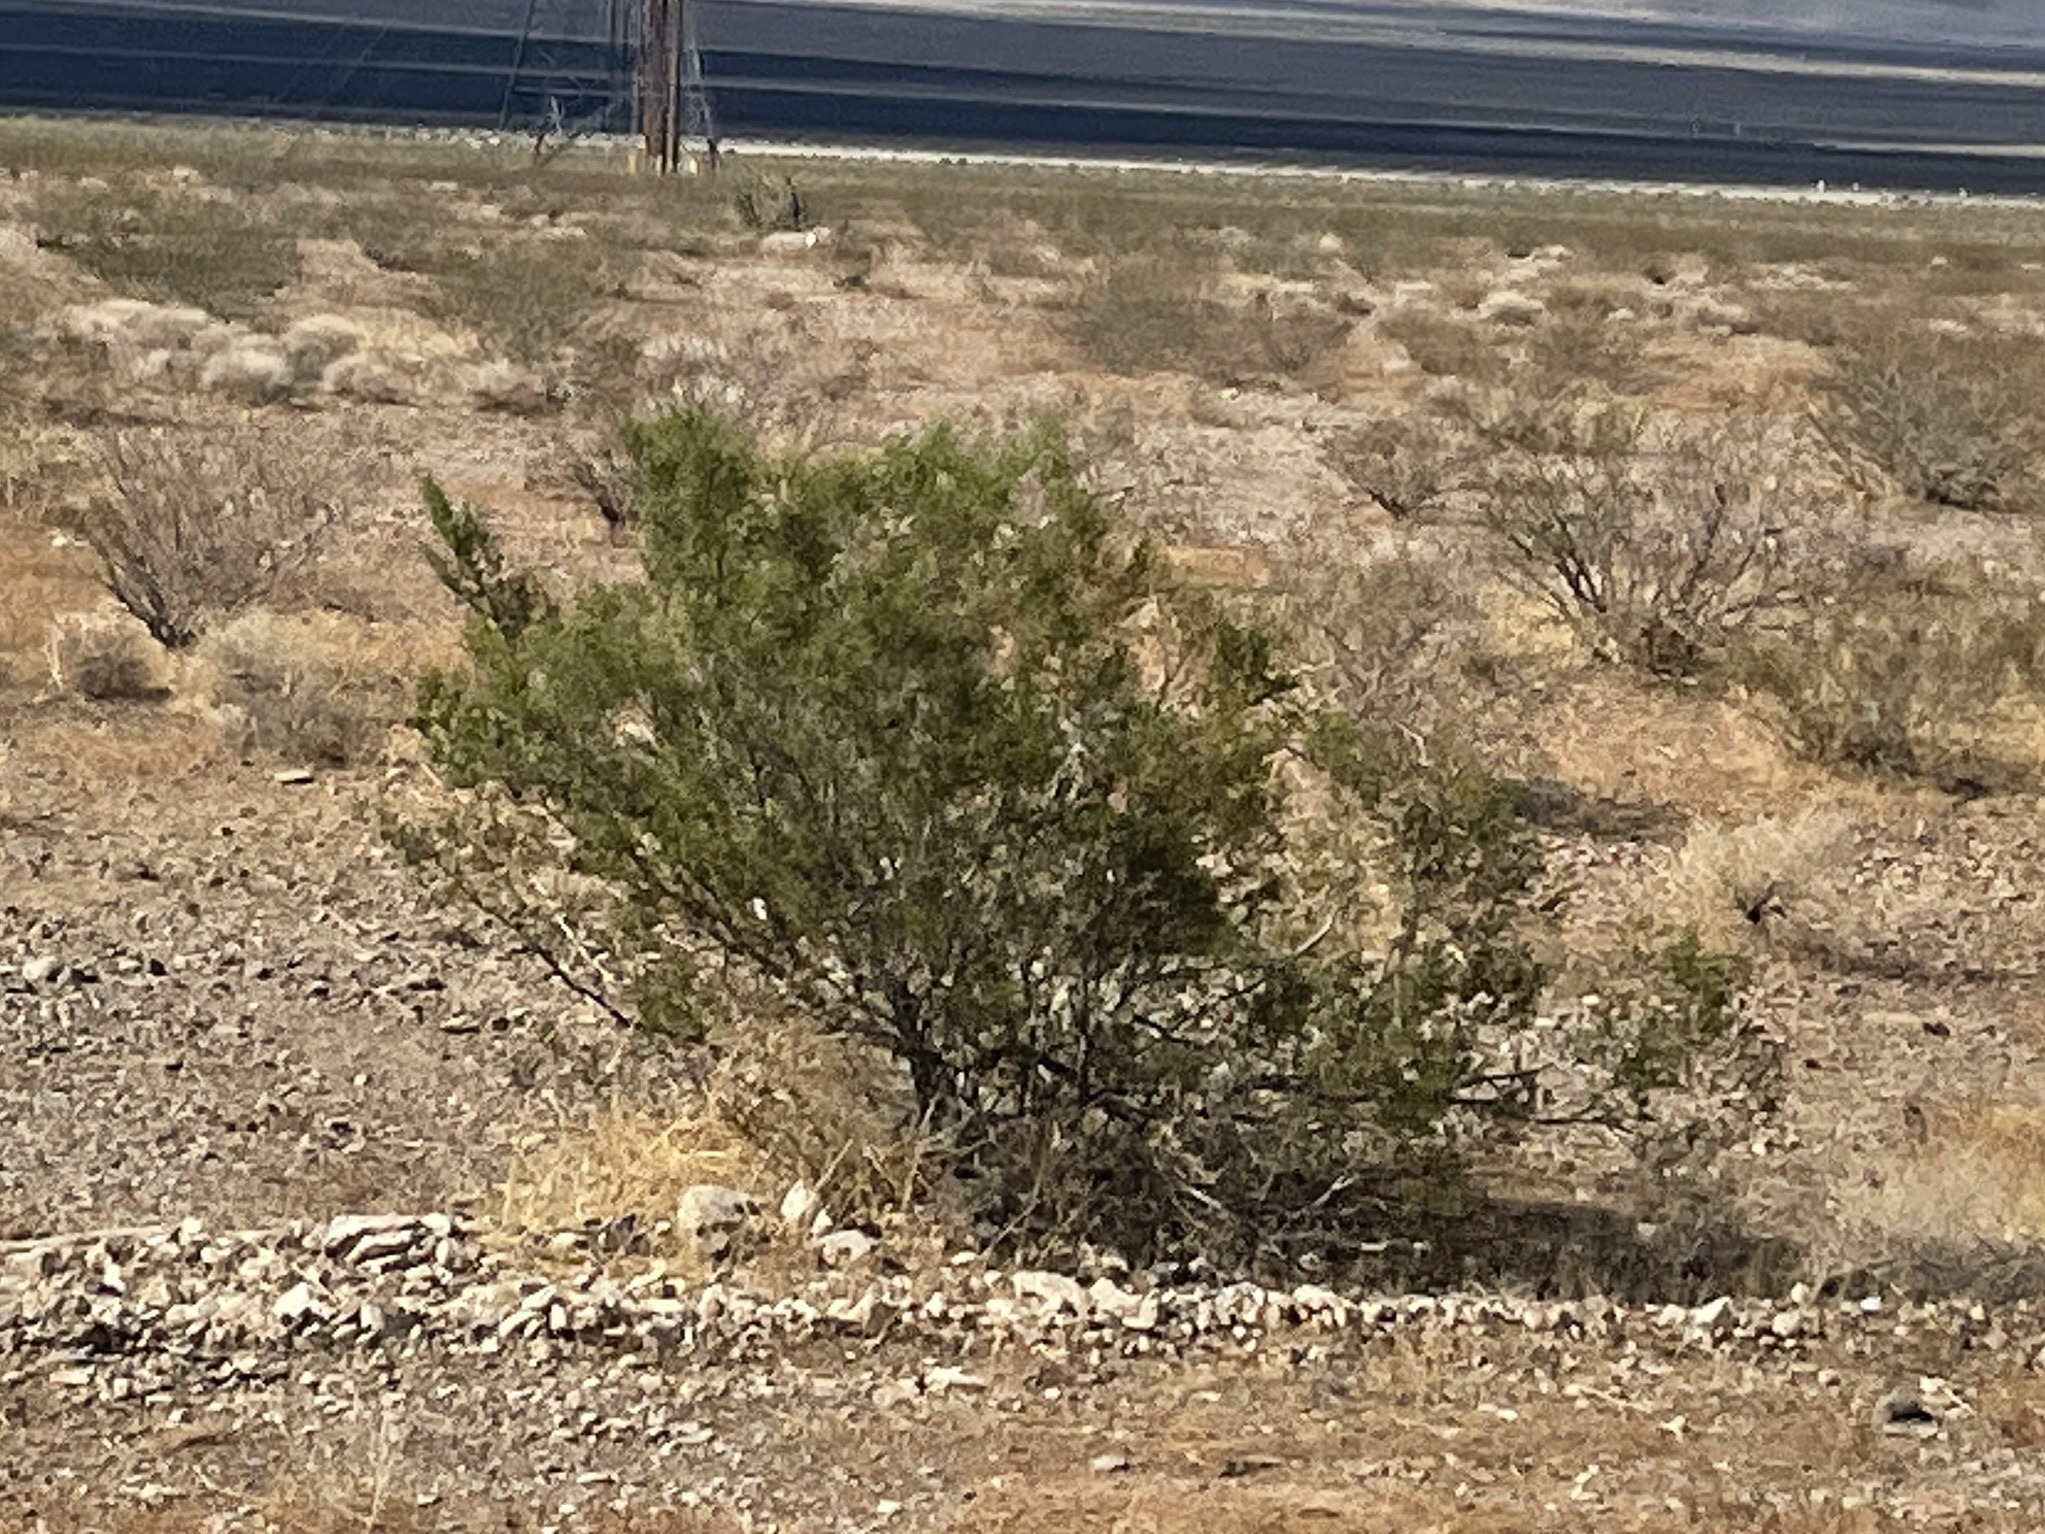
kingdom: Plantae
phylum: Tracheophyta
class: Magnoliopsida
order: Zygophyllales
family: Zygophyllaceae
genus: Larrea
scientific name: Larrea tridentata
